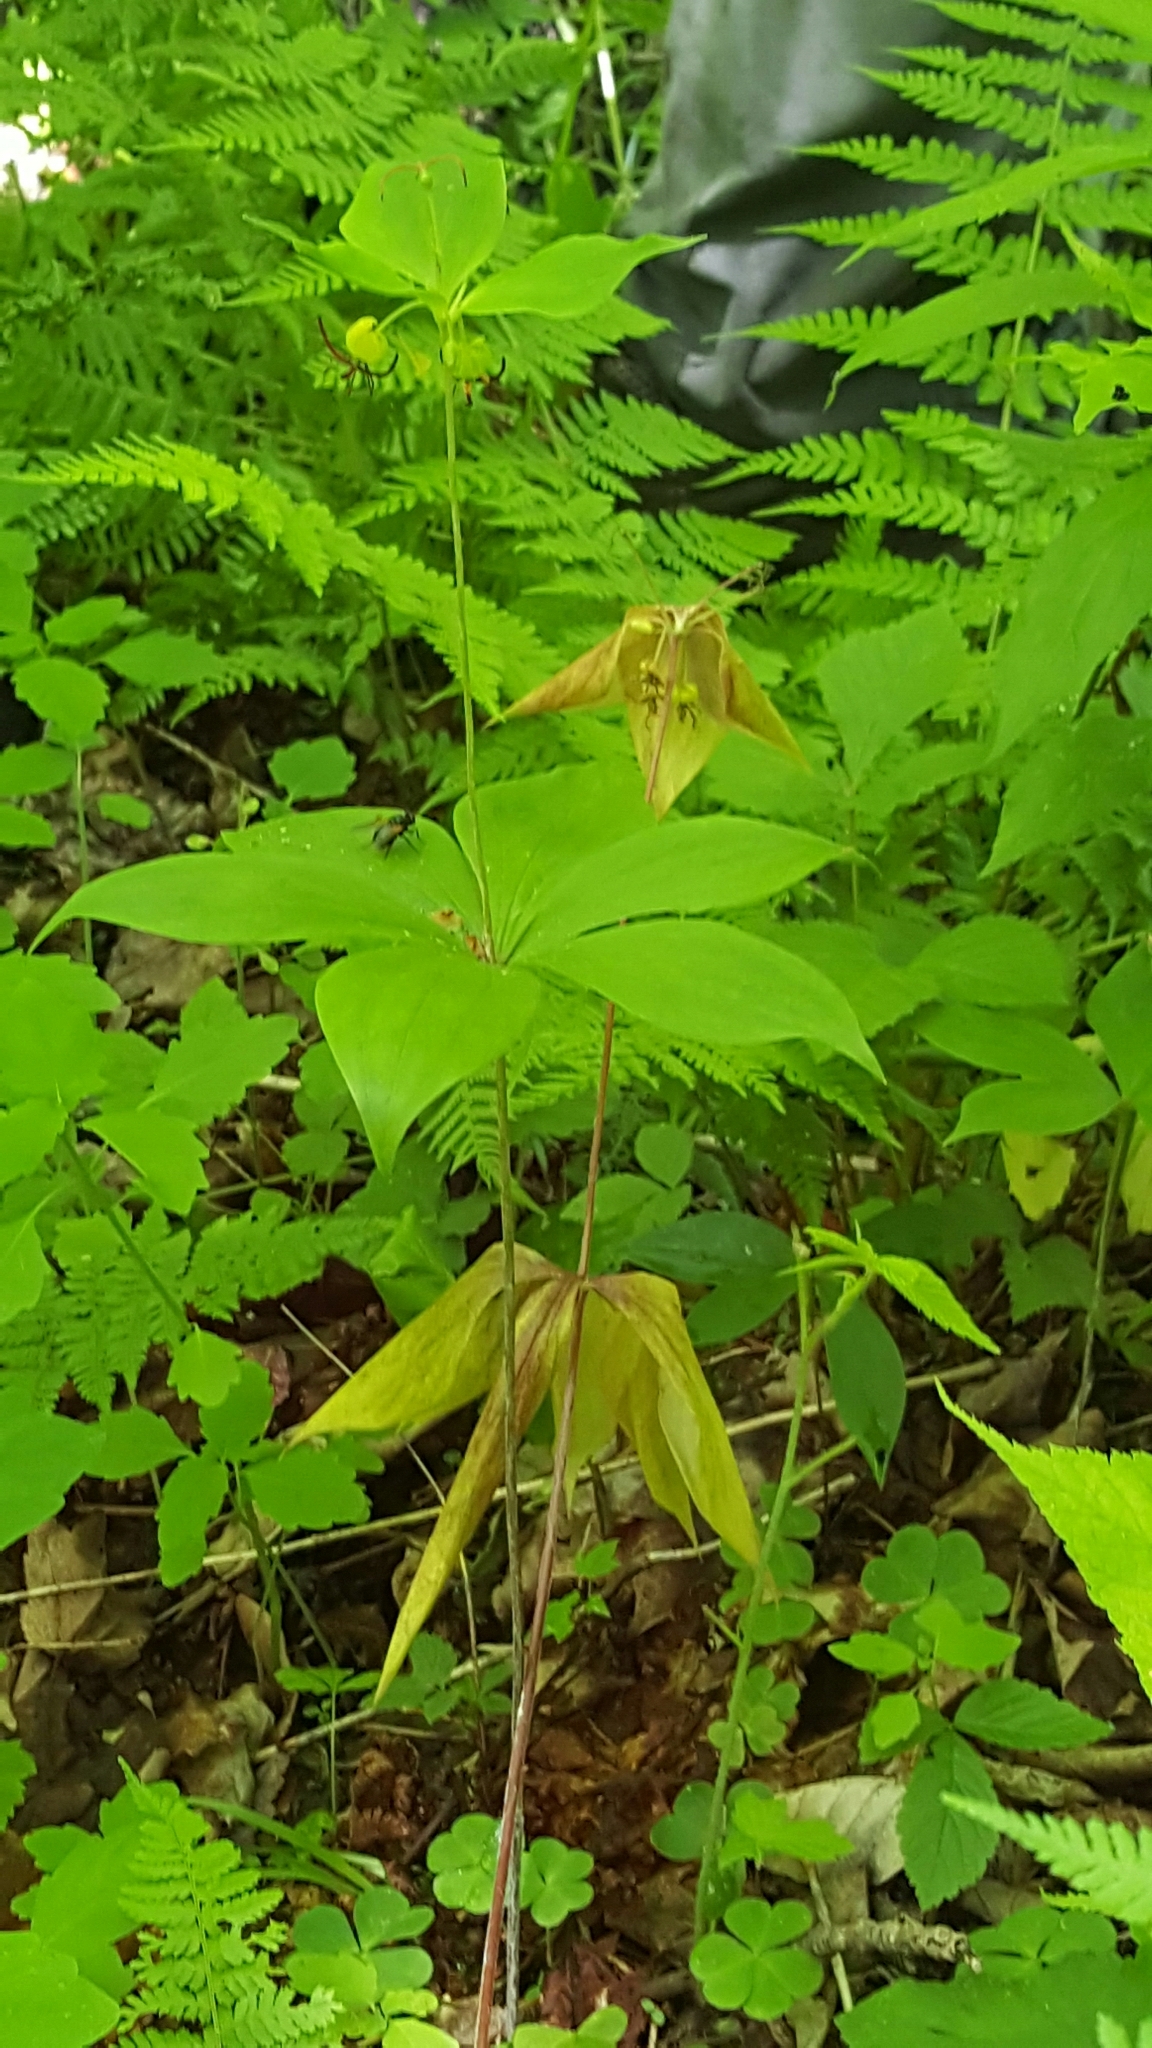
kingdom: Plantae
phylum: Tracheophyta
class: Liliopsida
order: Liliales
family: Liliaceae
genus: Medeola
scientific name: Medeola virginiana
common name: Indian cucumber-root
